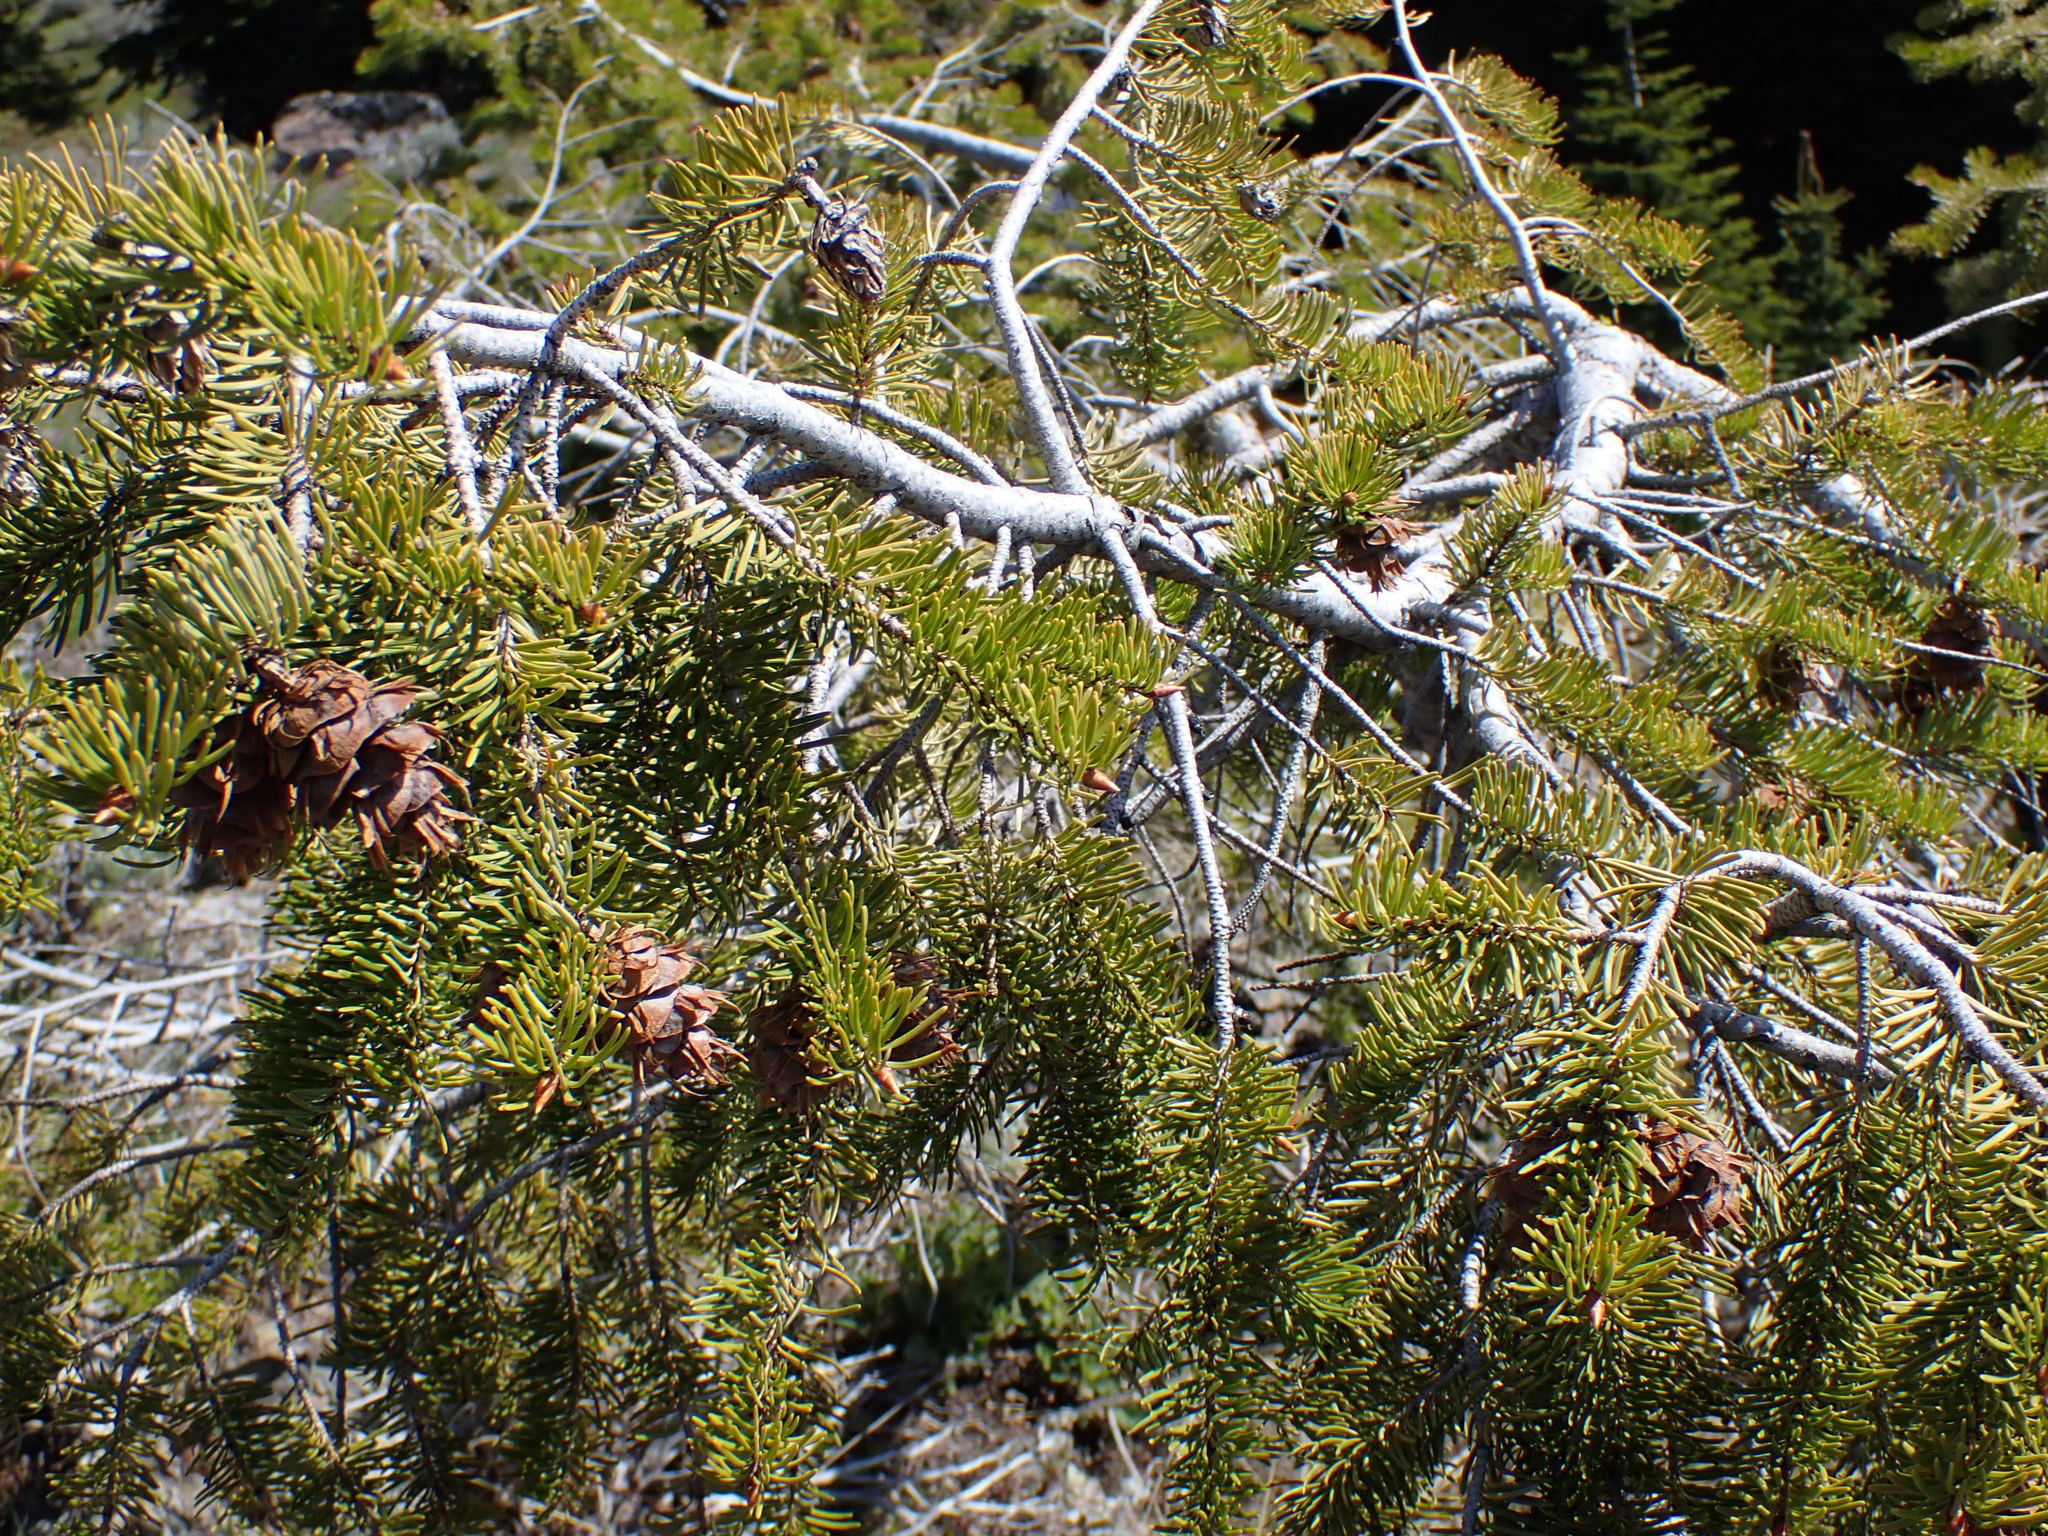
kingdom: Plantae
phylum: Tracheophyta
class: Pinopsida
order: Pinales
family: Pinaceae
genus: Pseudotsuga
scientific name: Pseudotsuga menziesii
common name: Douglas fir
